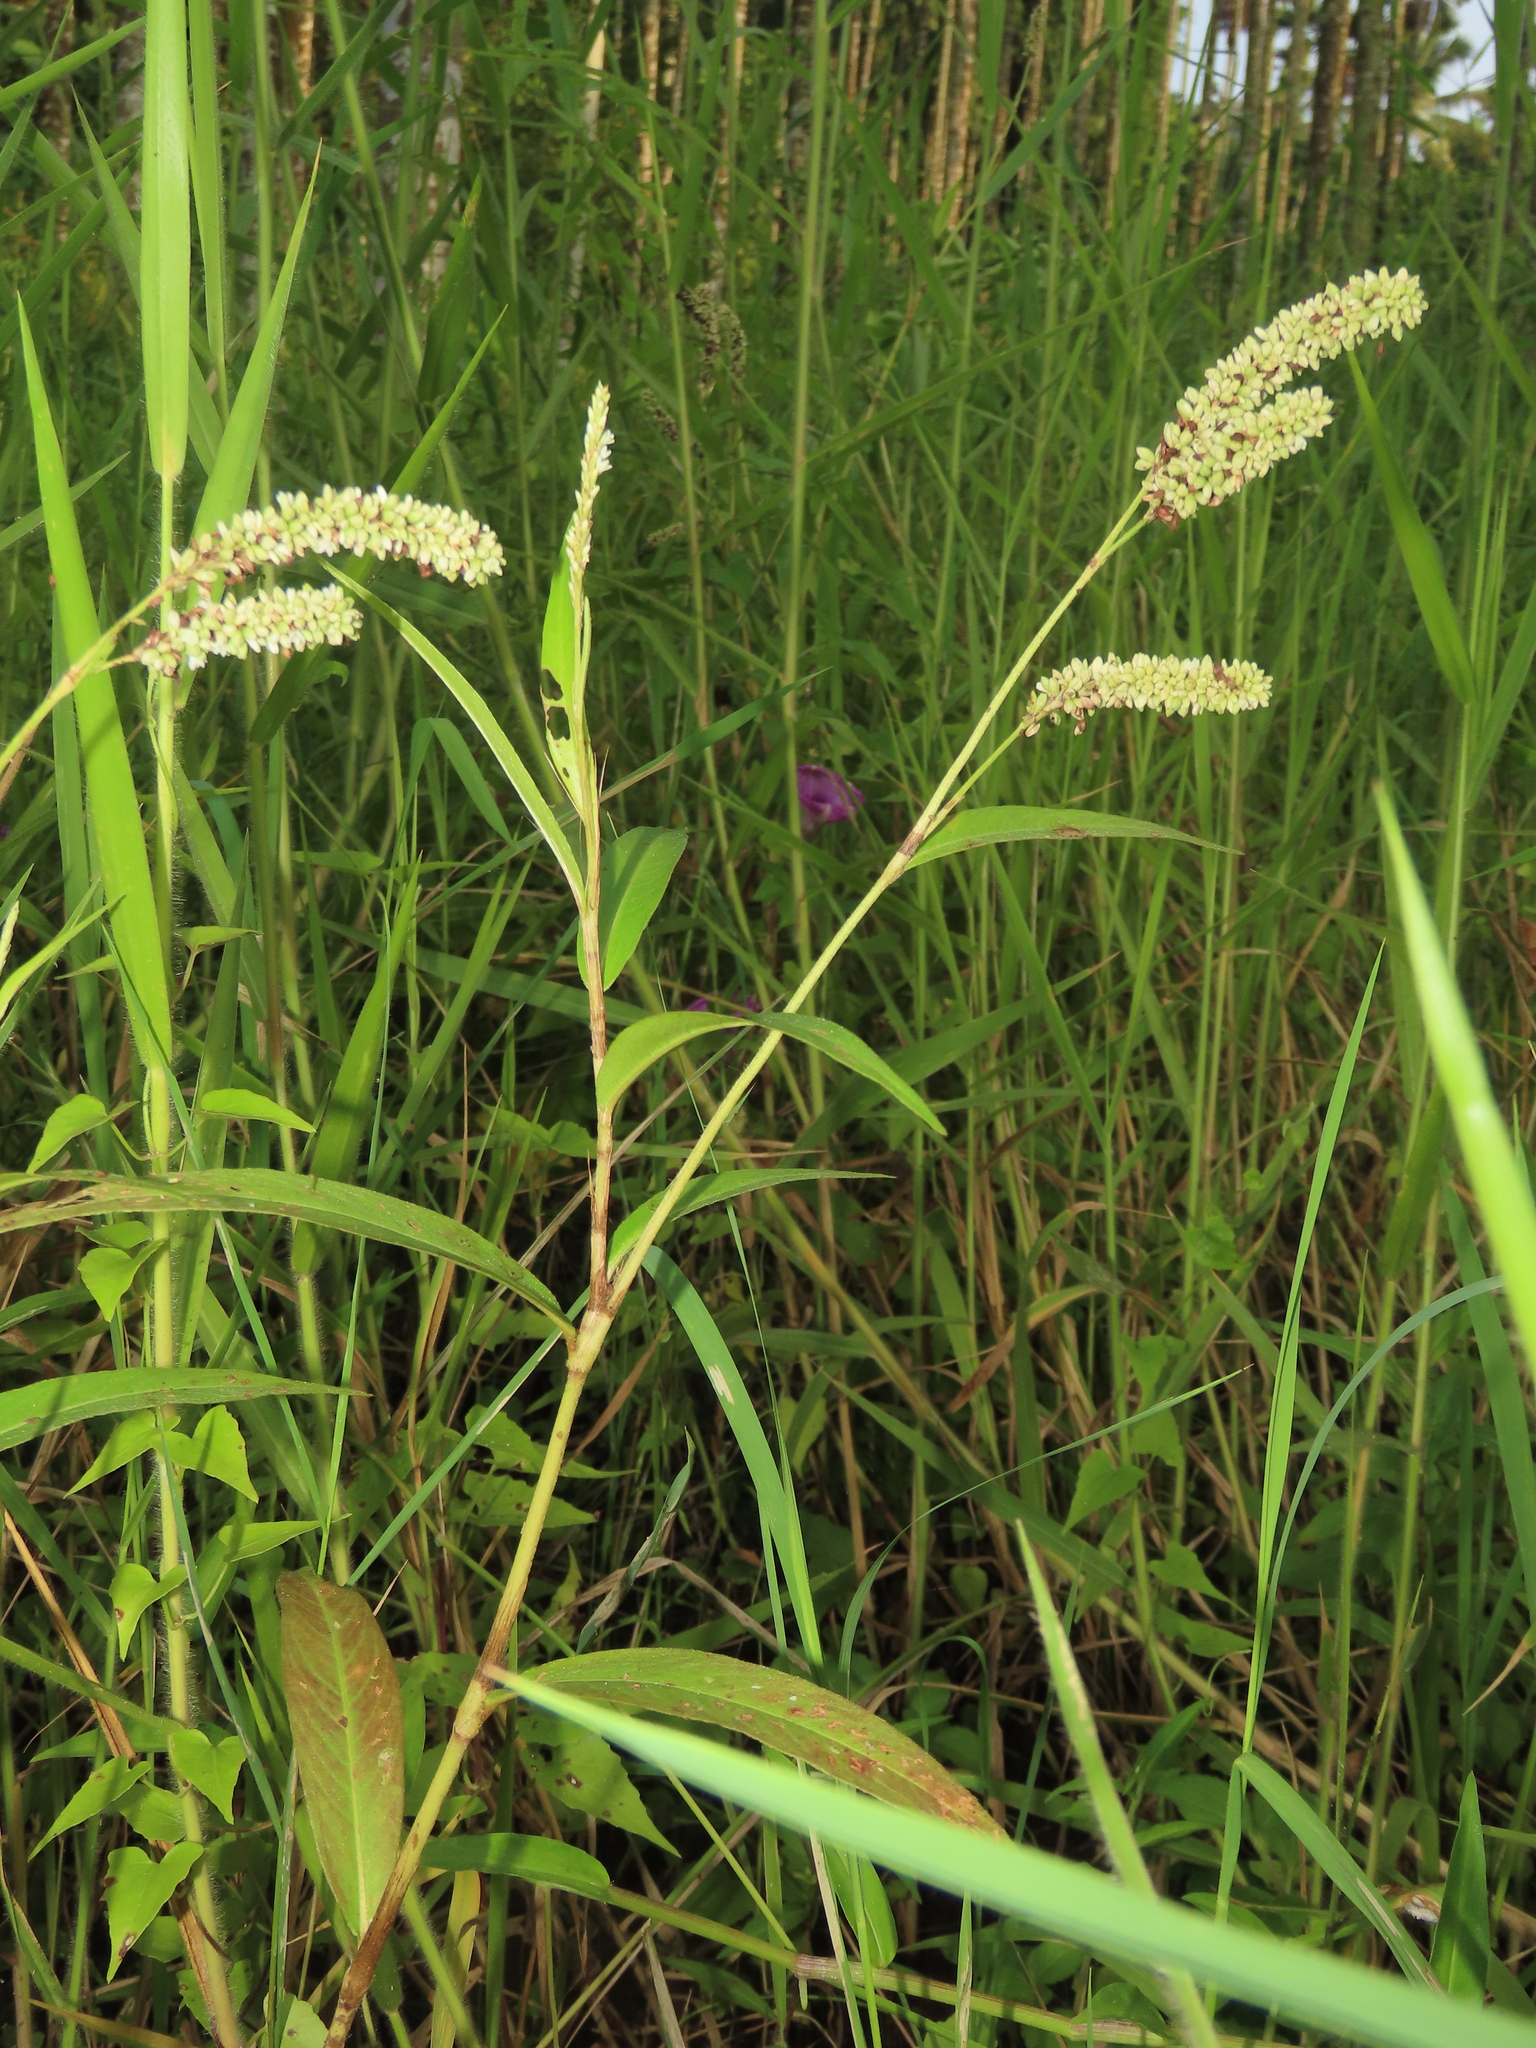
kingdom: Plantae
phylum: Tracheophyta
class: Magnoliopsida
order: Caryophyllales
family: Polygonaceae
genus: Persicaria
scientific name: Persicaria barbata
